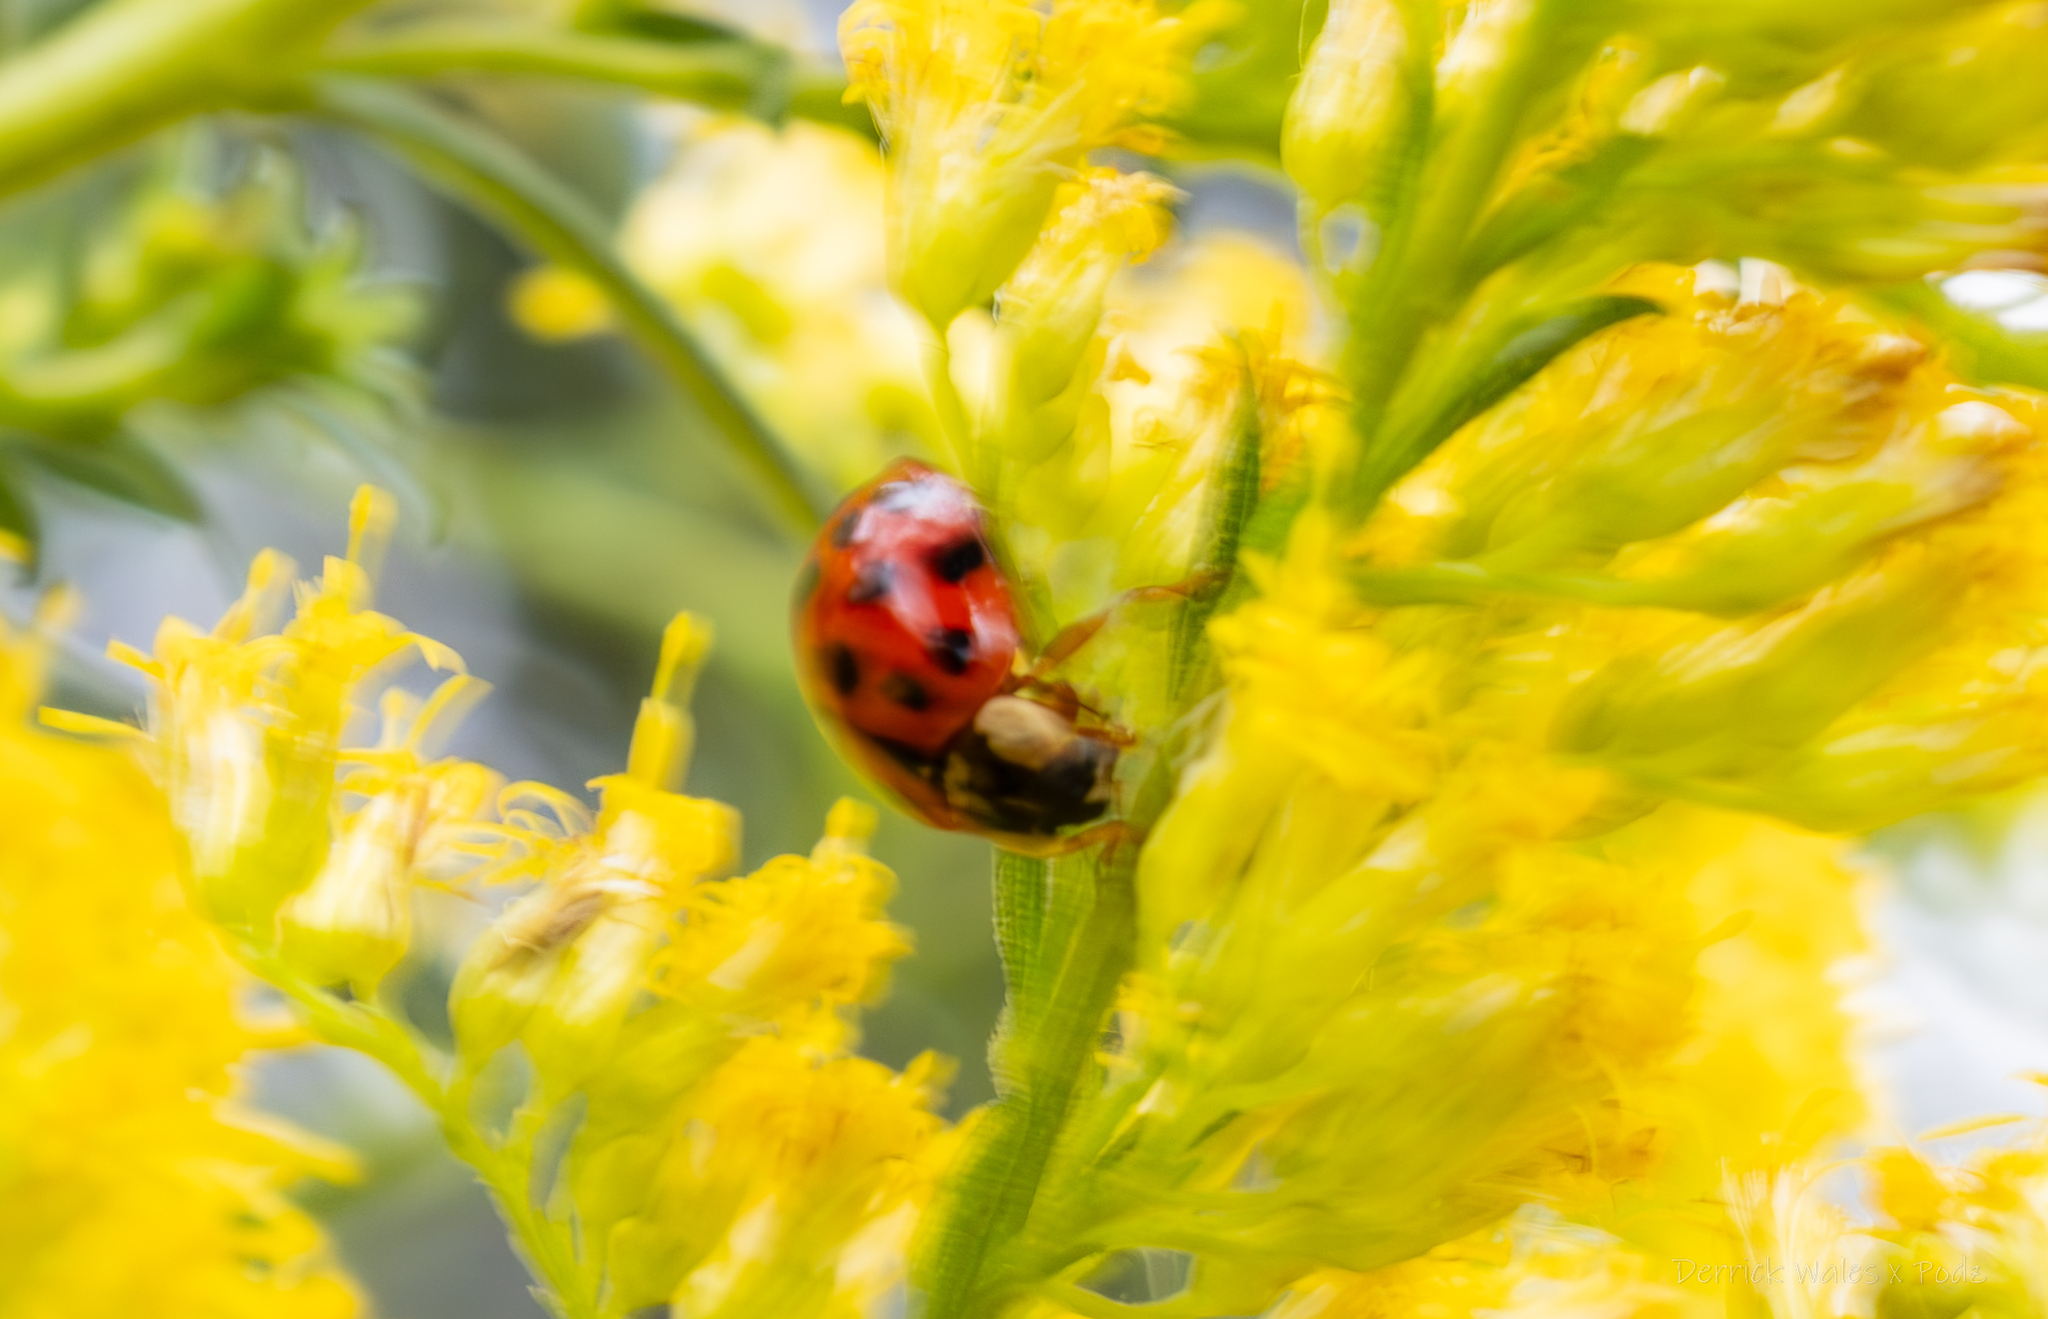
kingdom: Animalia
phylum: Arthropoda
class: Insecta
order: Coleoptera
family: Coccinellidae
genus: Harmonia
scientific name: Harmonia axyridis
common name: Harlequin ladybird
